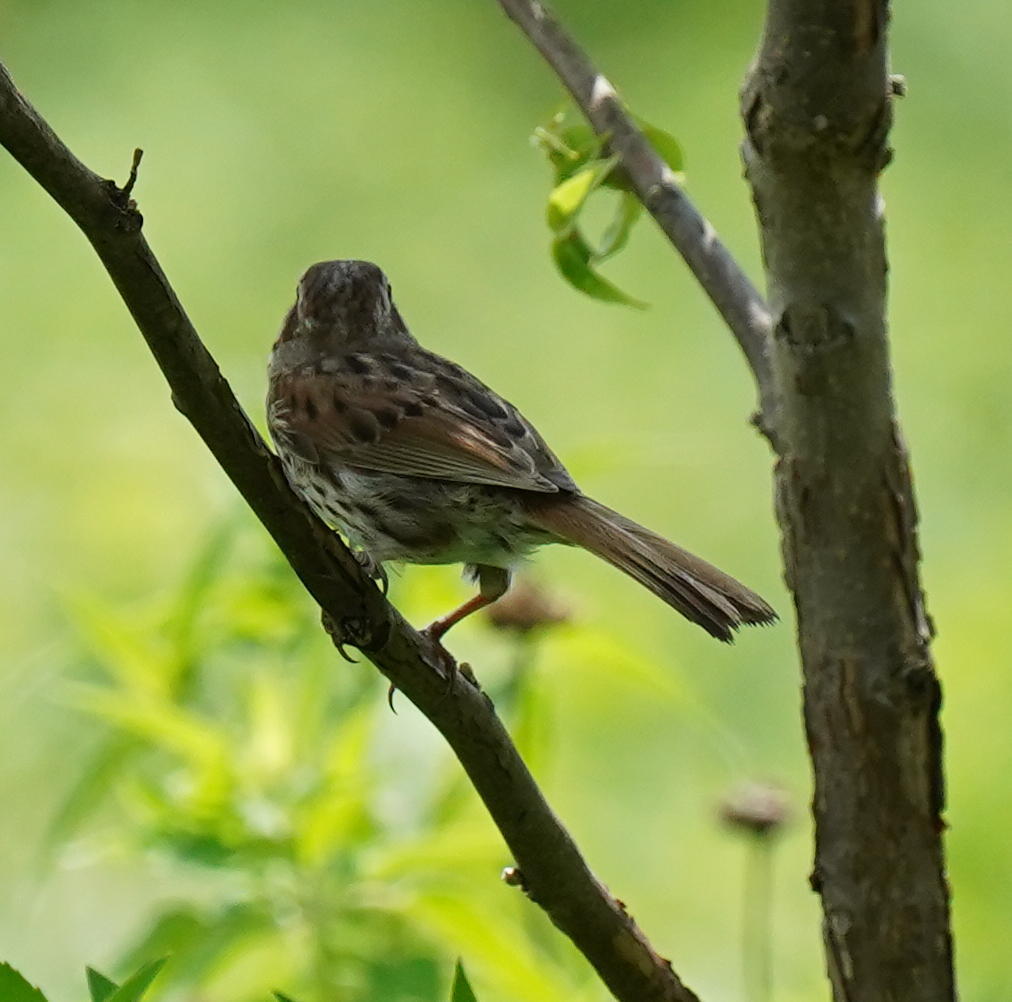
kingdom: Animalia
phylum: Chordata
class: Aves
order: Passeriformes
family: Passerellidae
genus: Melospiza
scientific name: Melospiza melodia
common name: Song sparrow
